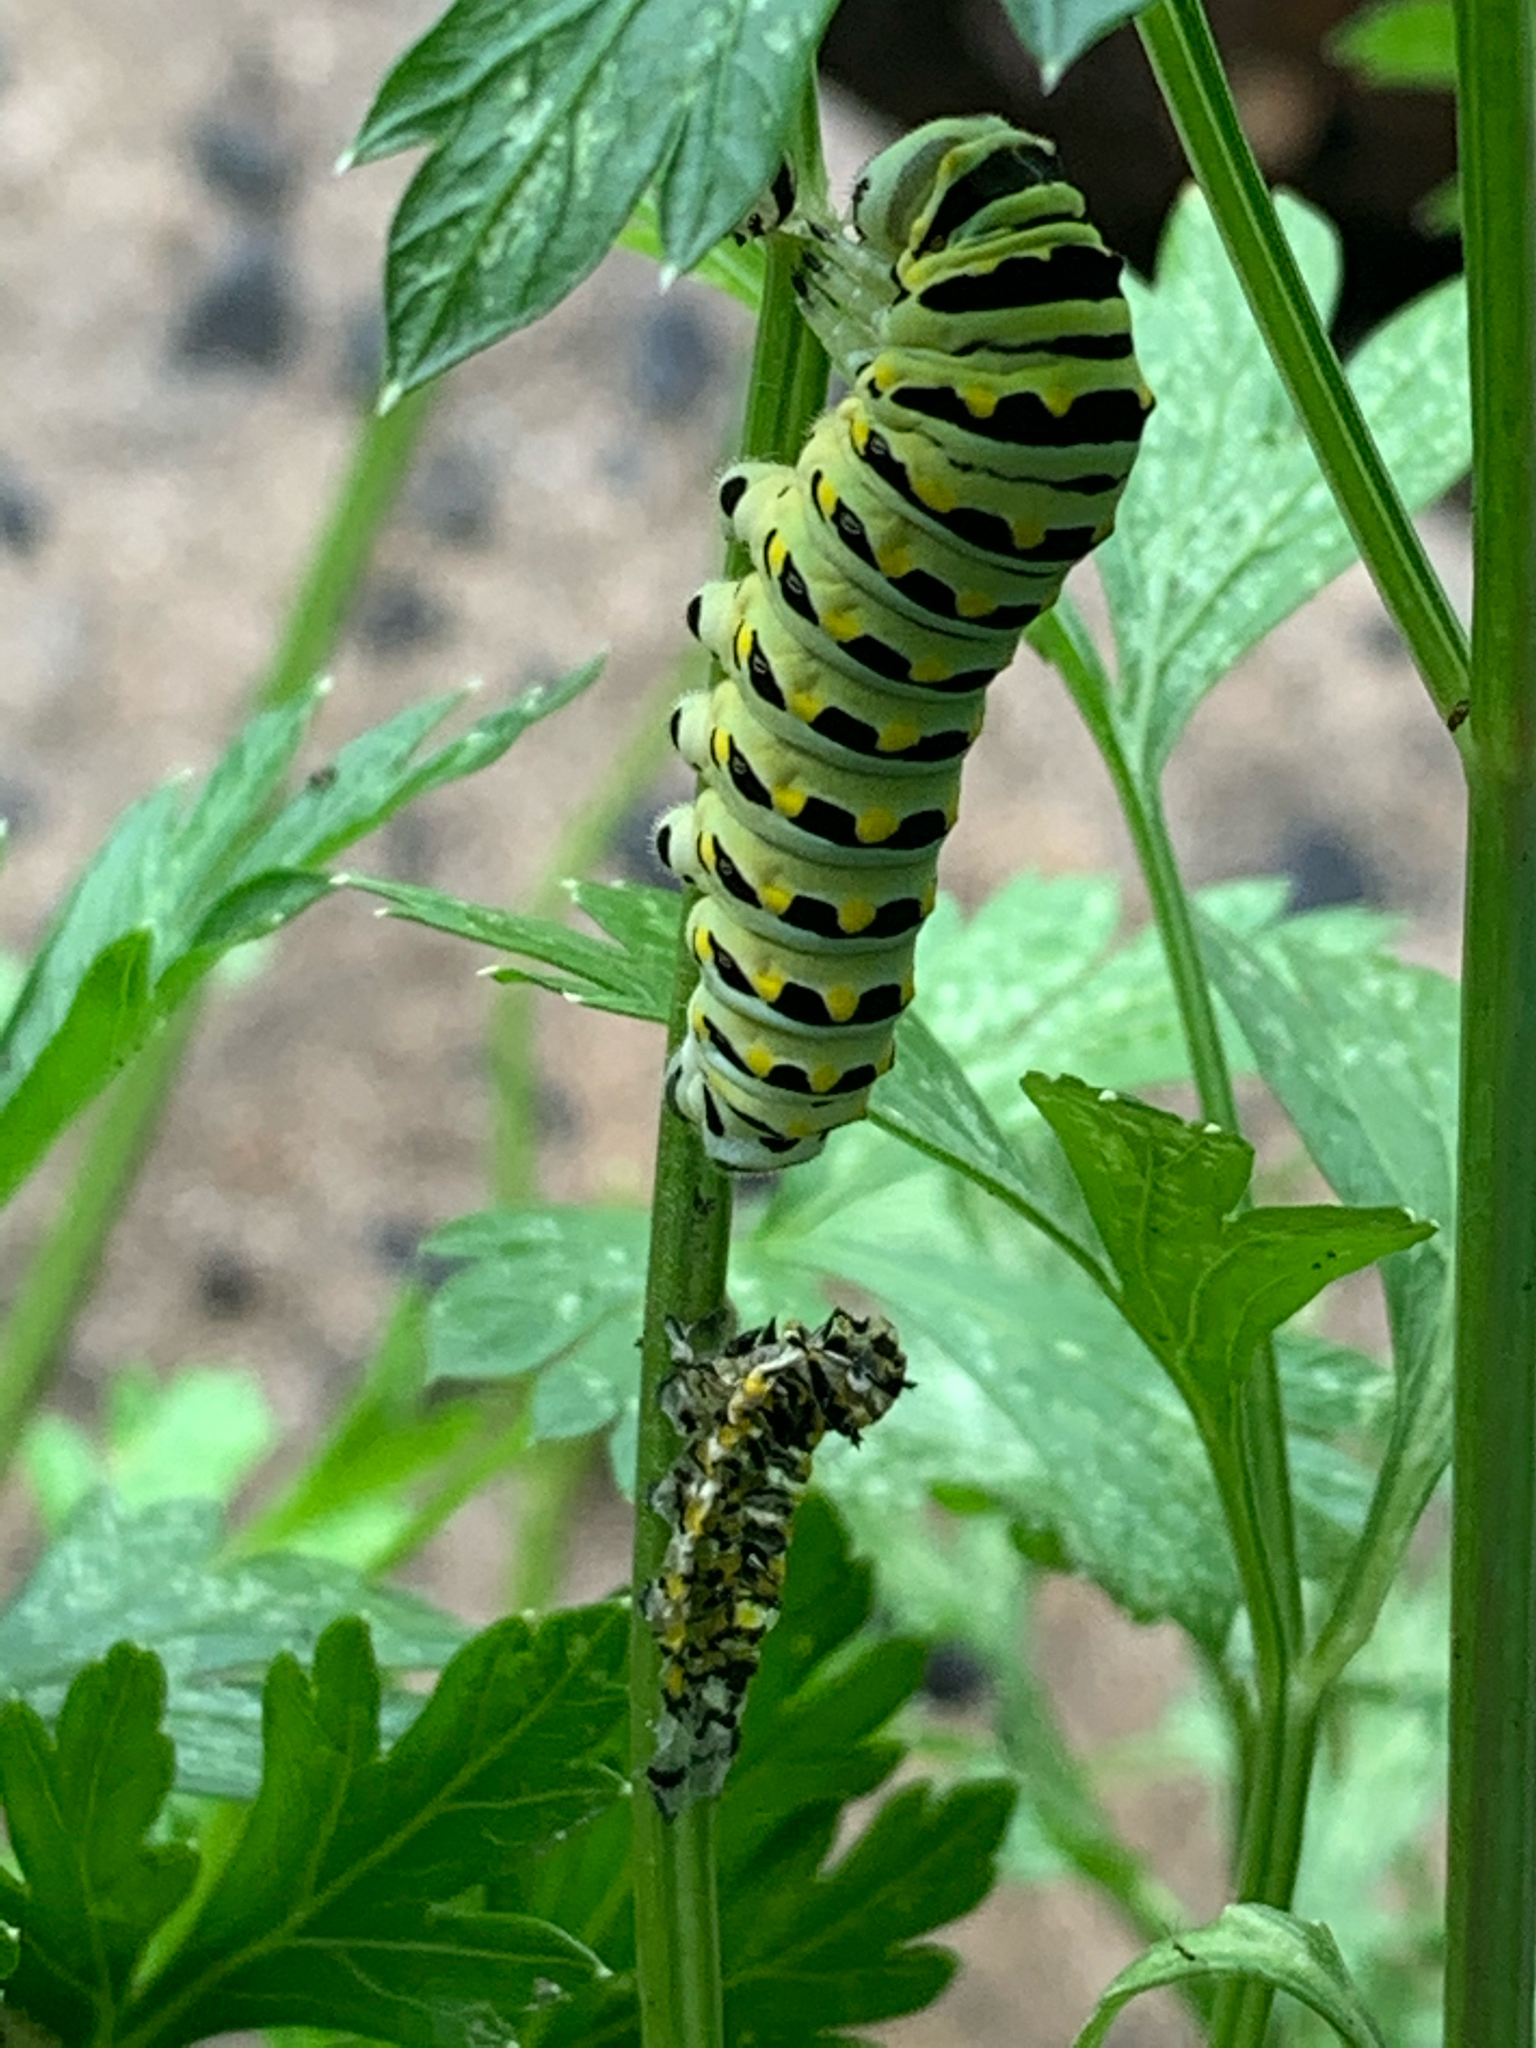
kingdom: Animalia
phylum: Arthropoda
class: Insecta
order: Lepidoptera
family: Papilionidae
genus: Papilio
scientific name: Papilio polyxenes
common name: Black swallowtail
